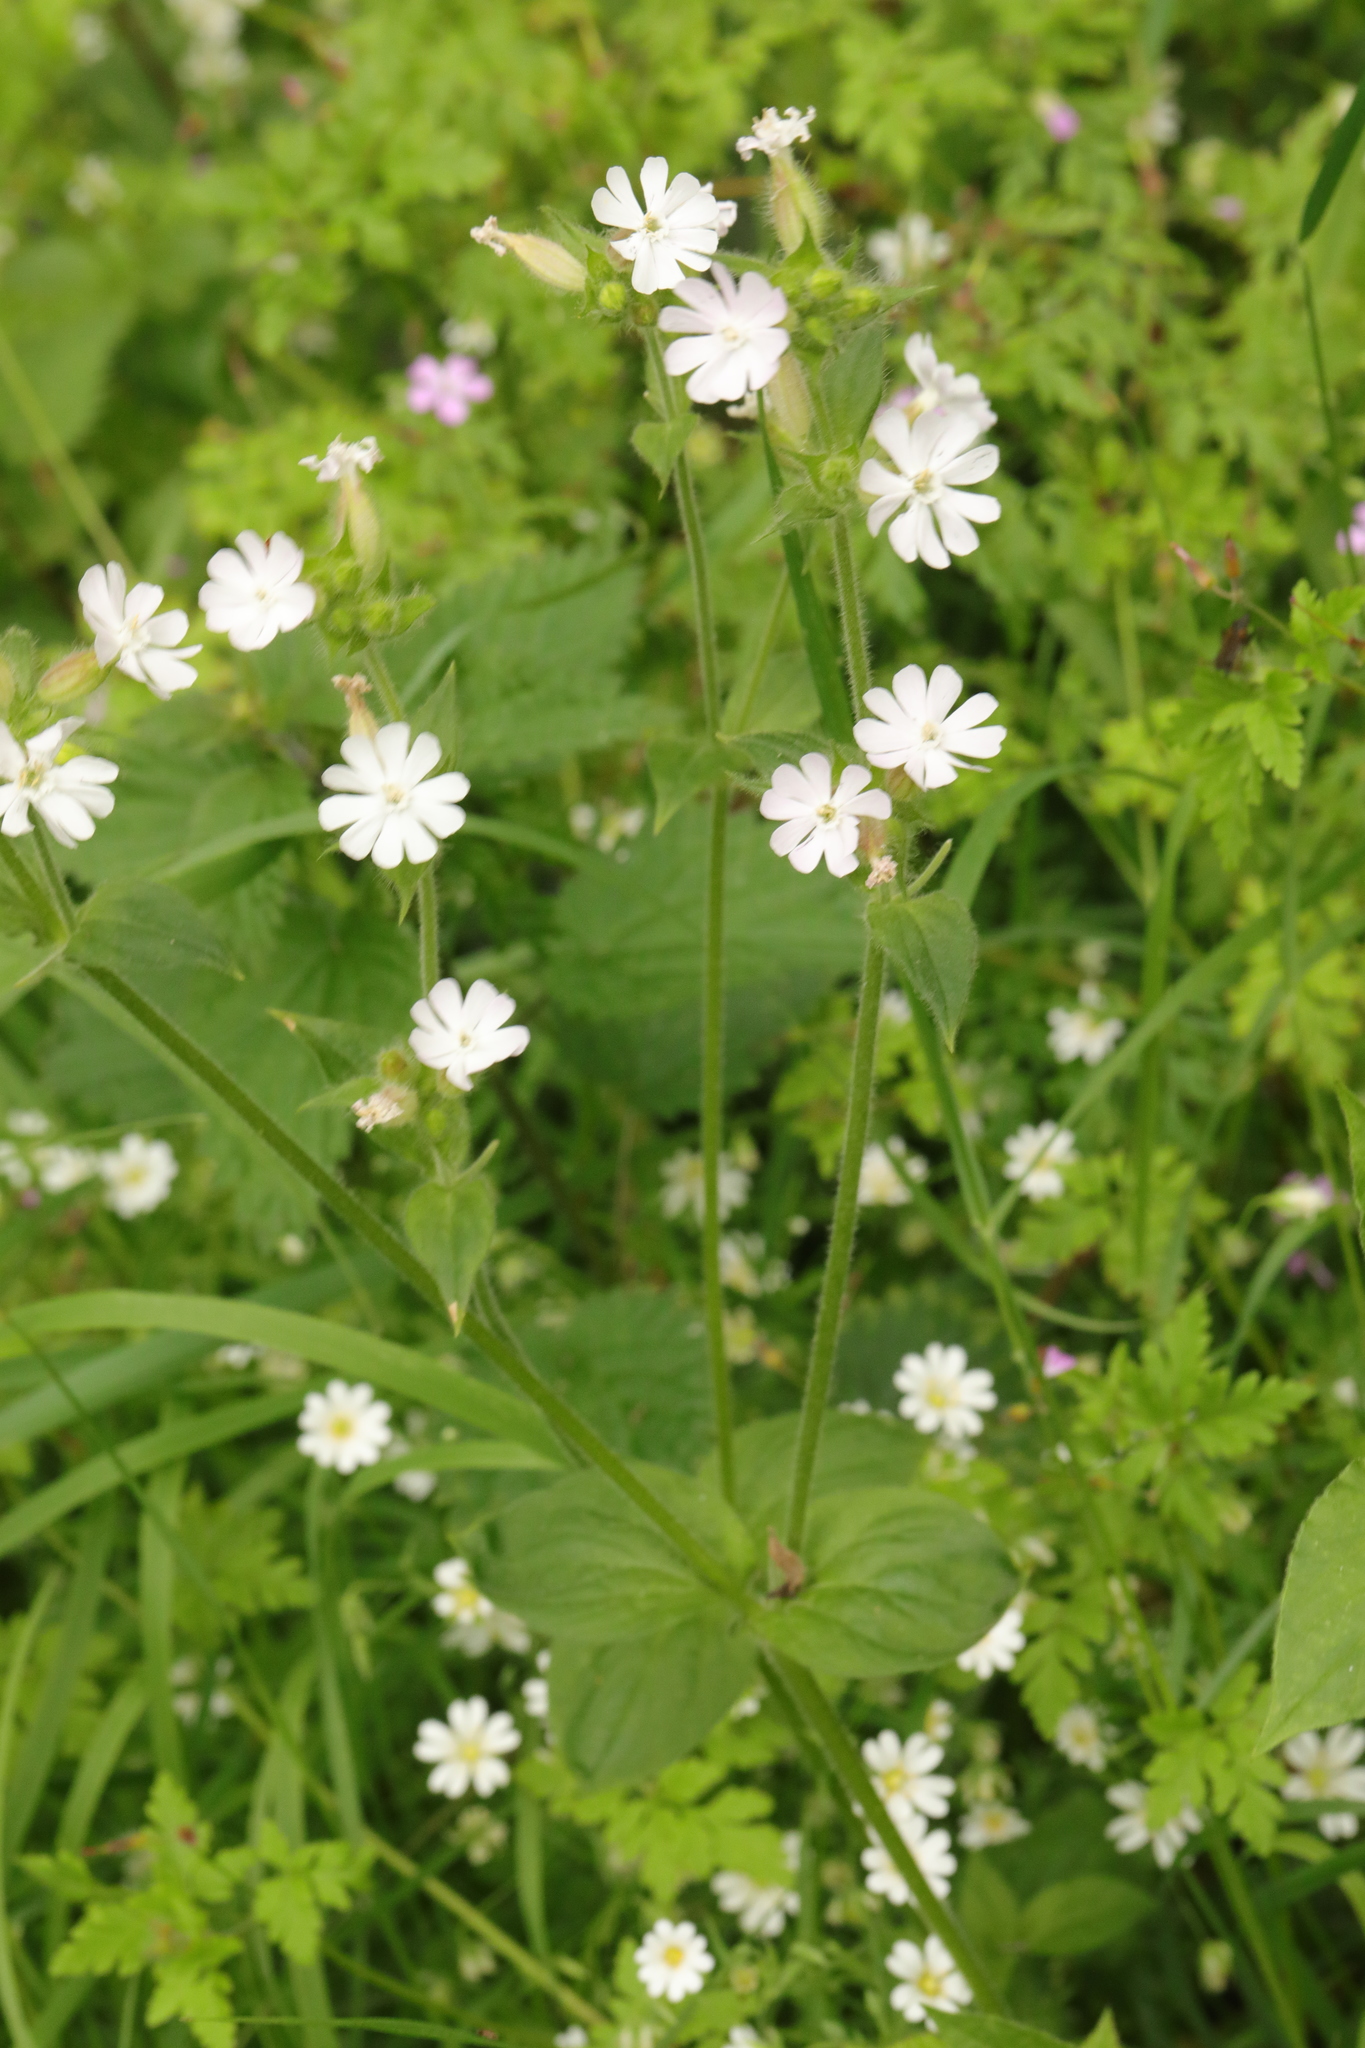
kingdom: Plantae
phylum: Tracheophyta
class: Magnoliopsida
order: Caryophyllales
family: Caryophyllaceae
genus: Silene
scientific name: Silene latifolia
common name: White campion
